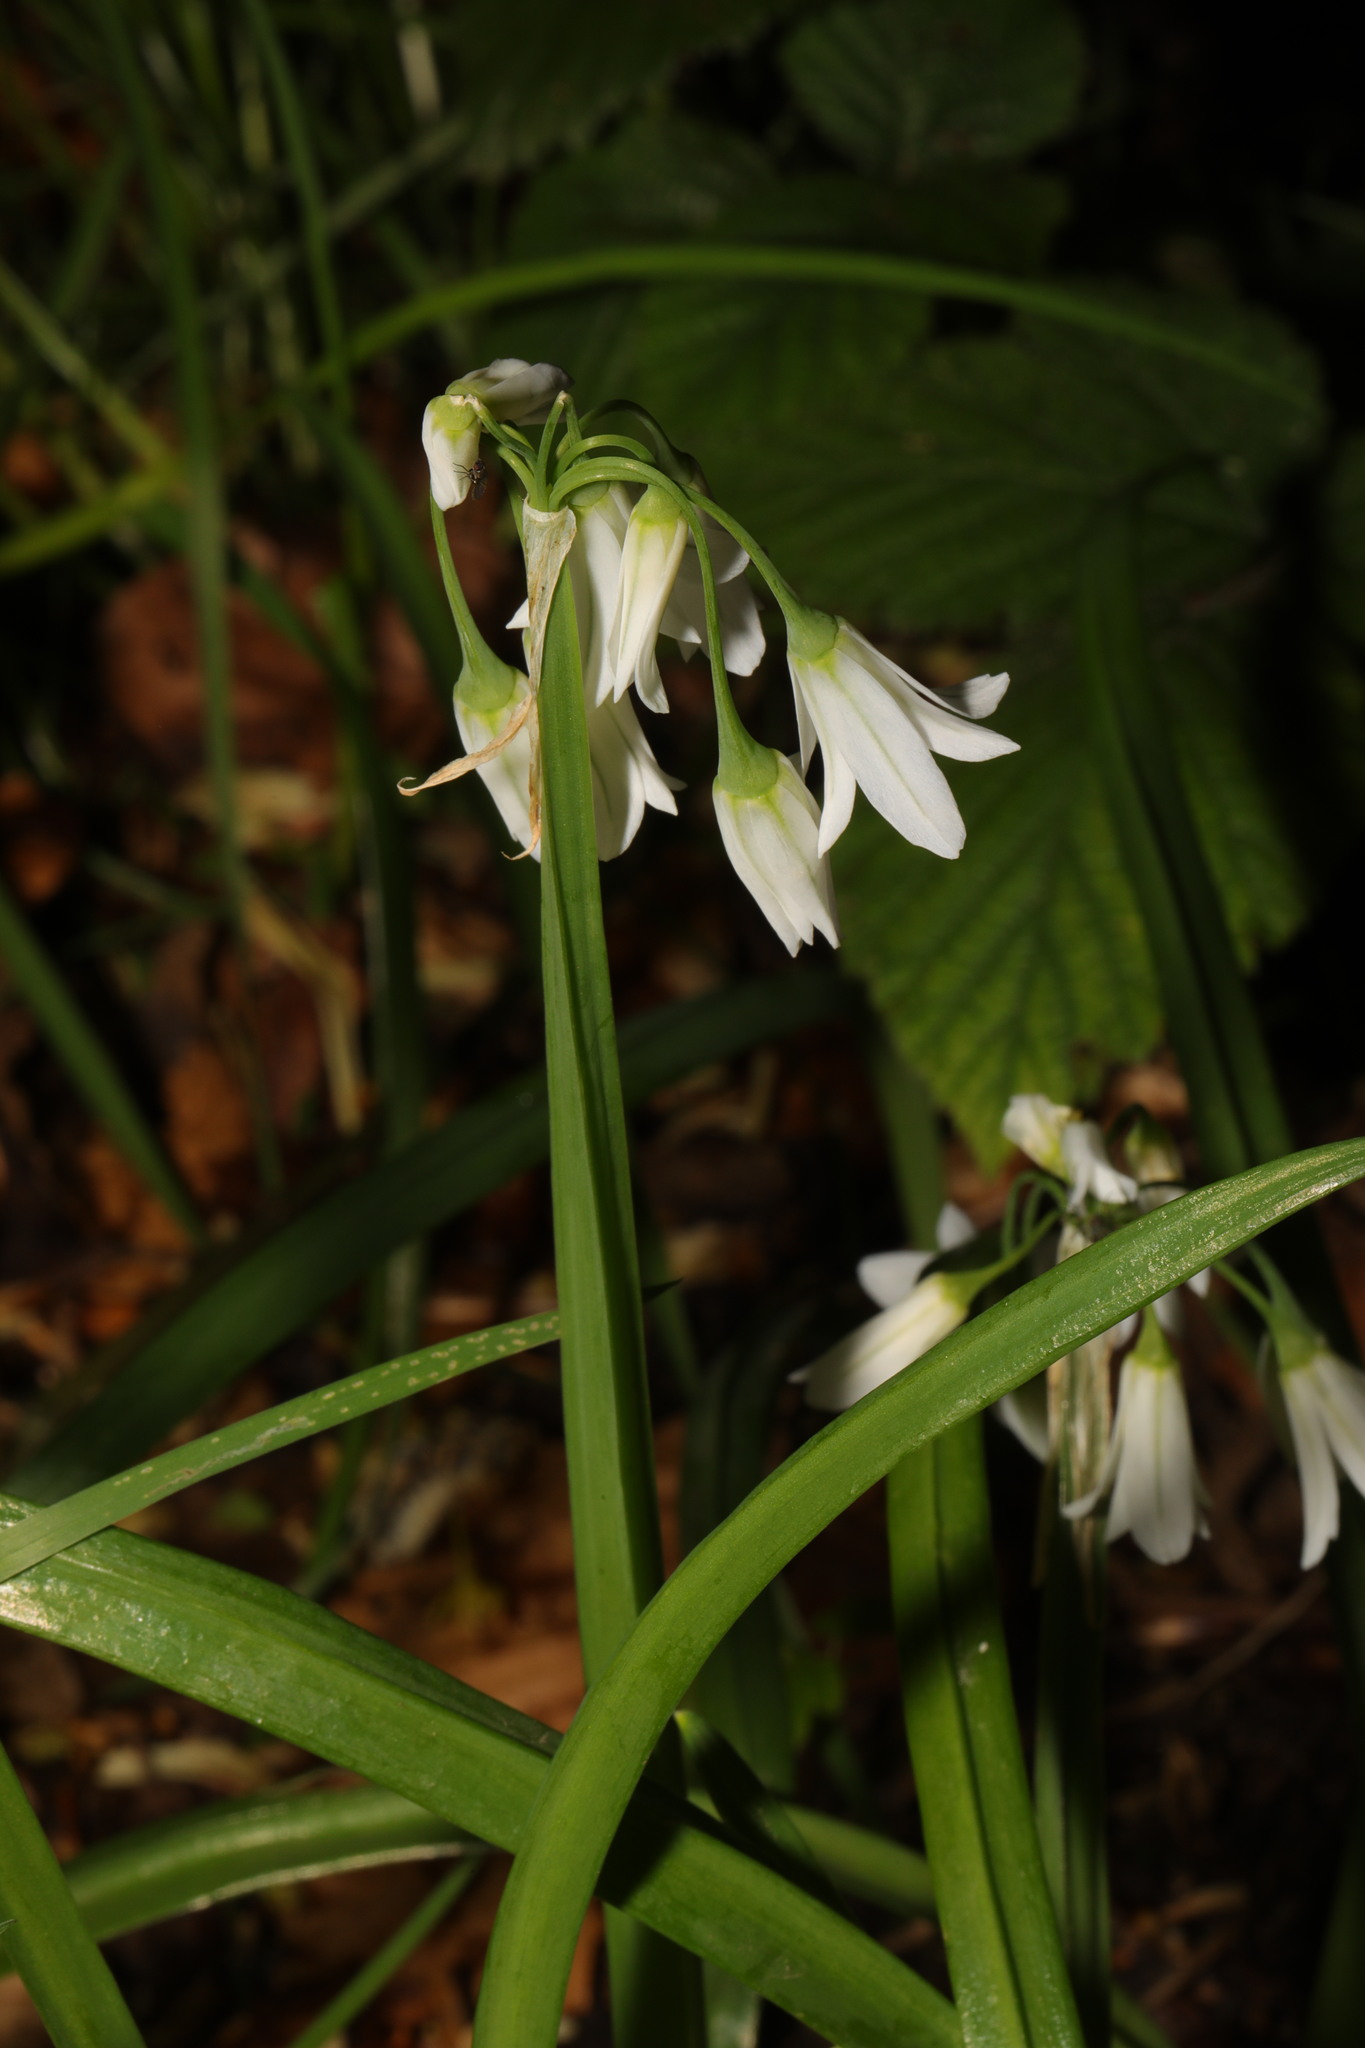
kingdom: Plantae
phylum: Tracheophyta
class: Liliopsida
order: Asparagales
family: Amaryllidaceae
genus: Allium
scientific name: Allium triquetrum
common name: Three-cornered garlic
